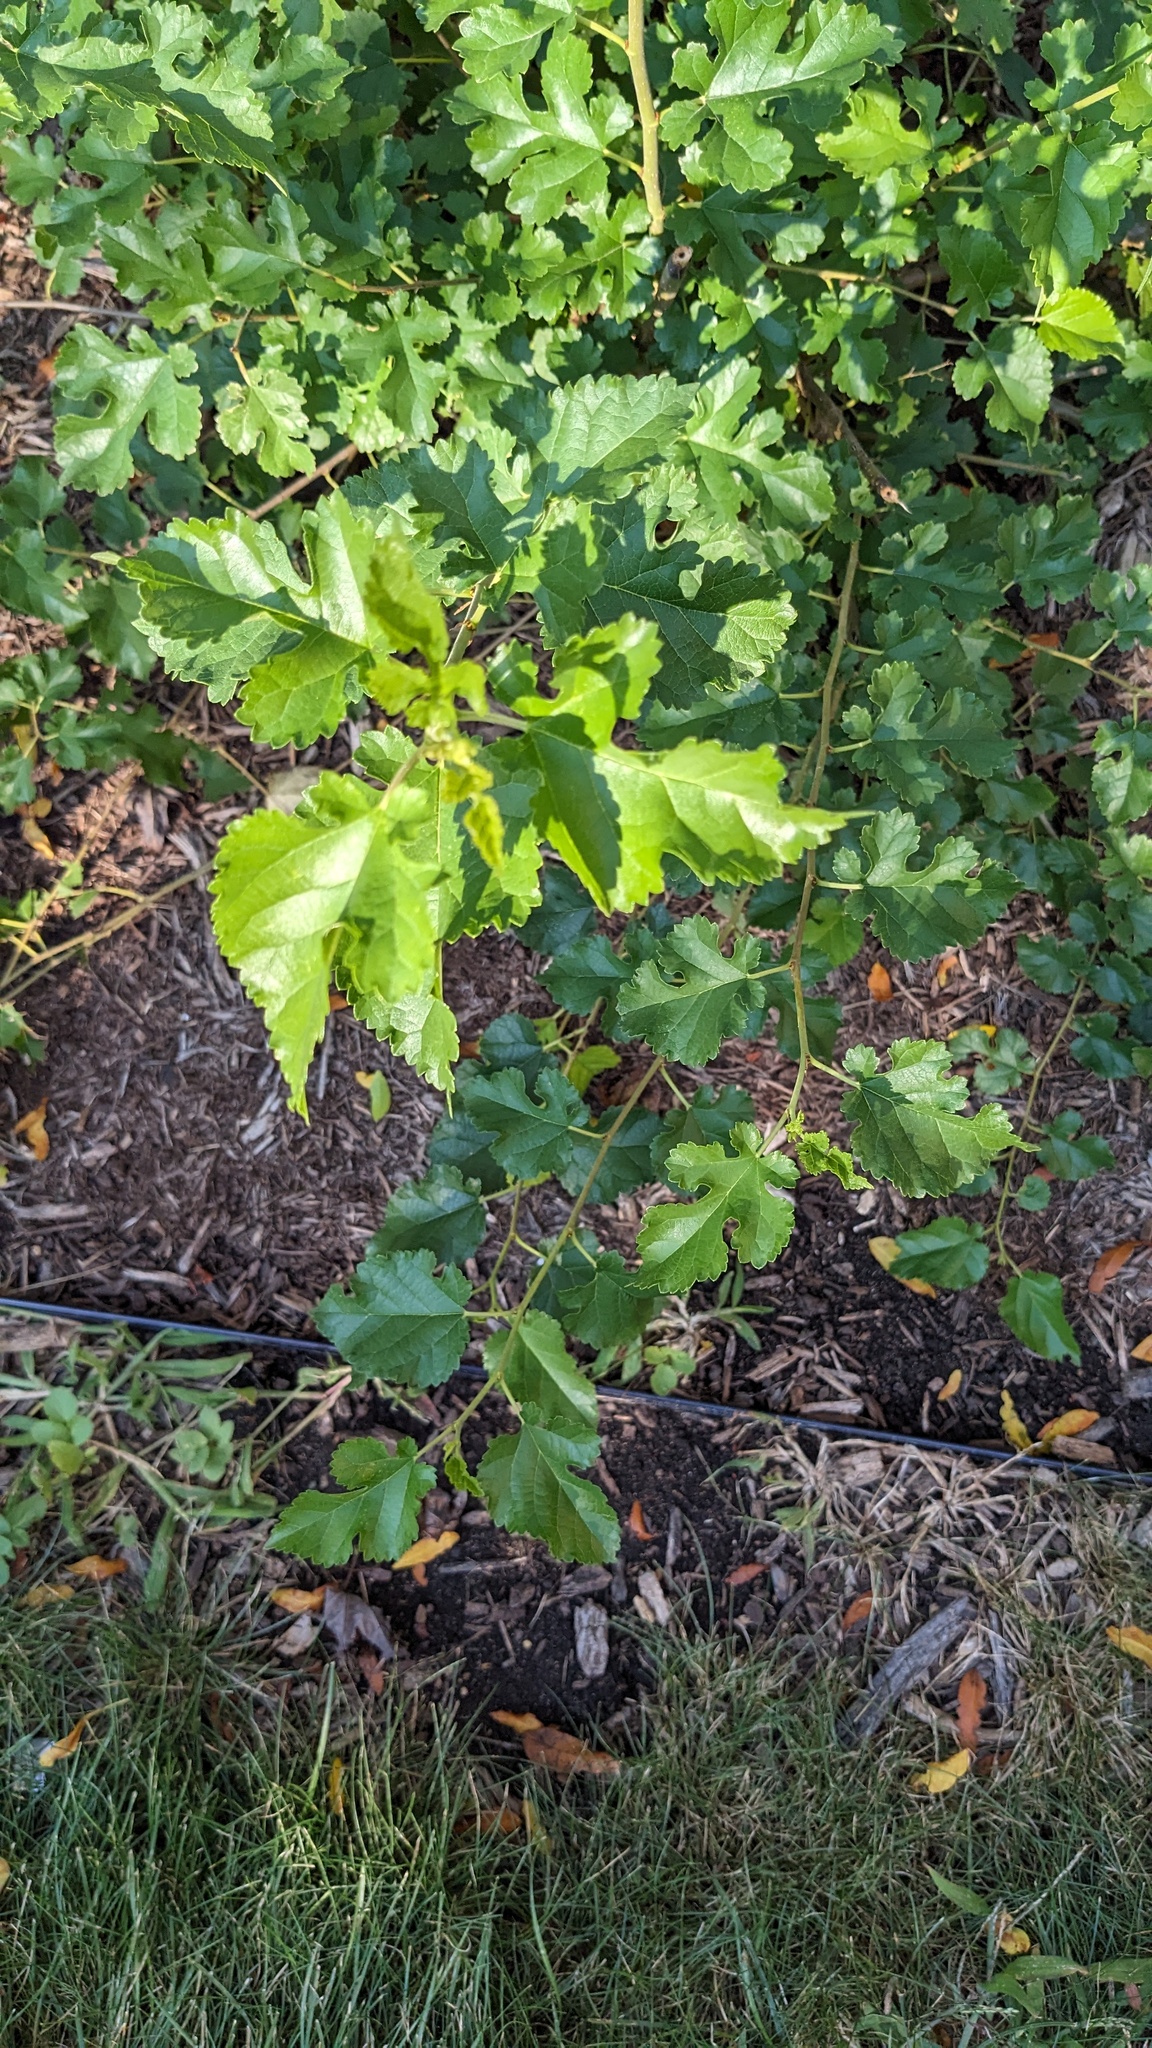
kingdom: Plantae
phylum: Tracheophyta
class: Magnoliopsida
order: Rosales
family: Moraceae
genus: Morus
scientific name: Morus alba
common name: White mulberry
